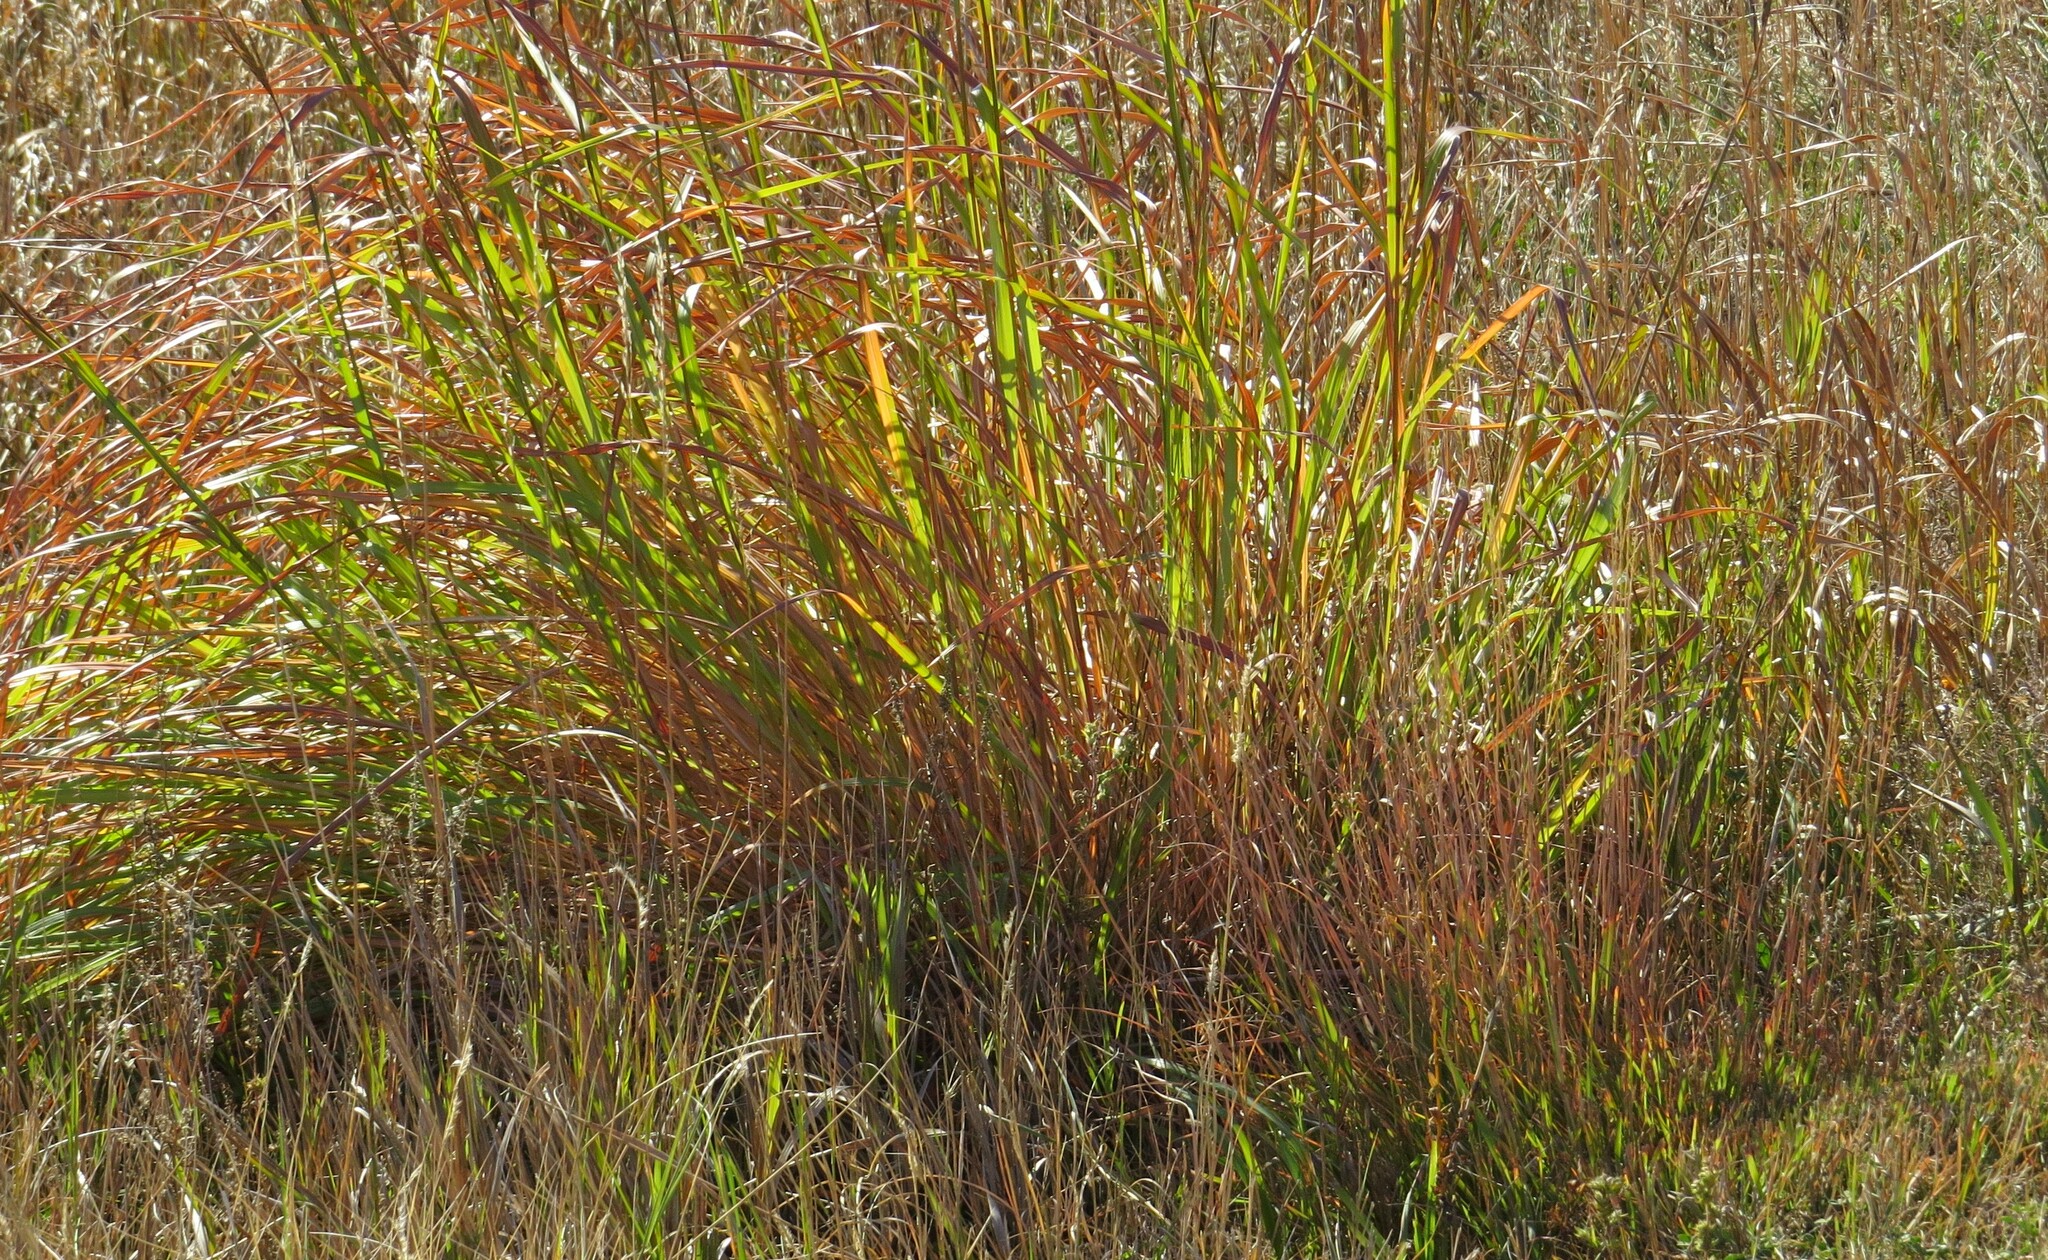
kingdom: Plantae
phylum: Tracheophyta
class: Liliopsida
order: Poales
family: Poaceae
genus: Andropogon
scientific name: Andropogon gerardi
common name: Big bluestem
